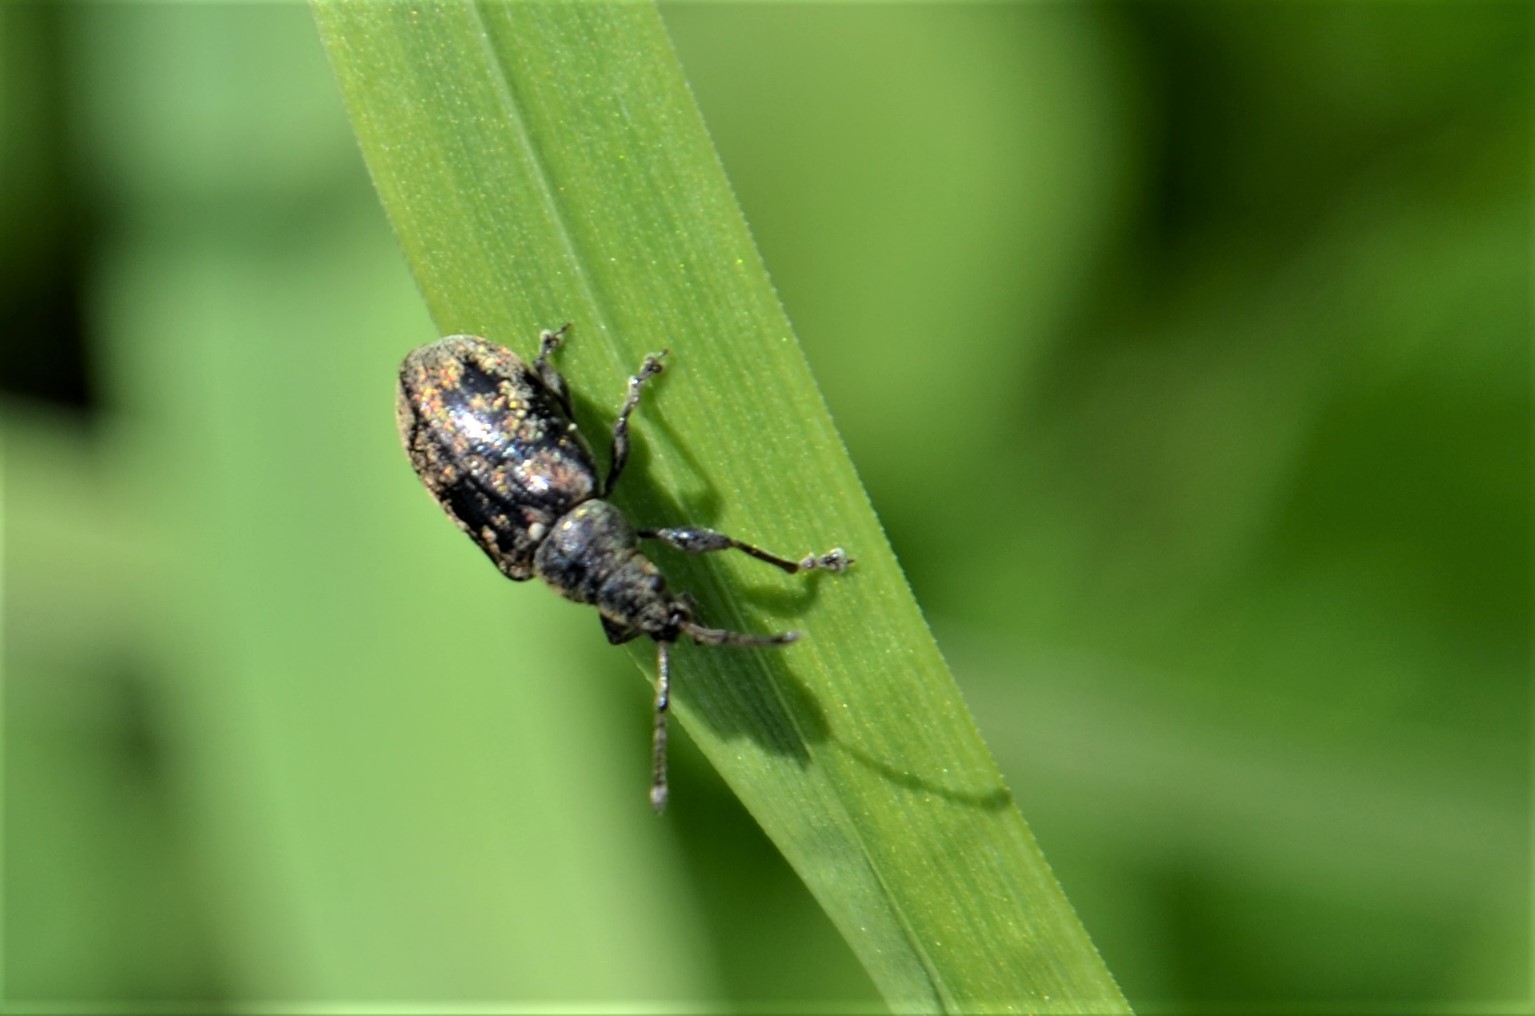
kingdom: Animalia
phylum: Arthropoda
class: Insecta
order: Coleoptera
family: Curculionidae
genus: Phyllobius
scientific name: Phyllobius pyri
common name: Common leaf weevil
